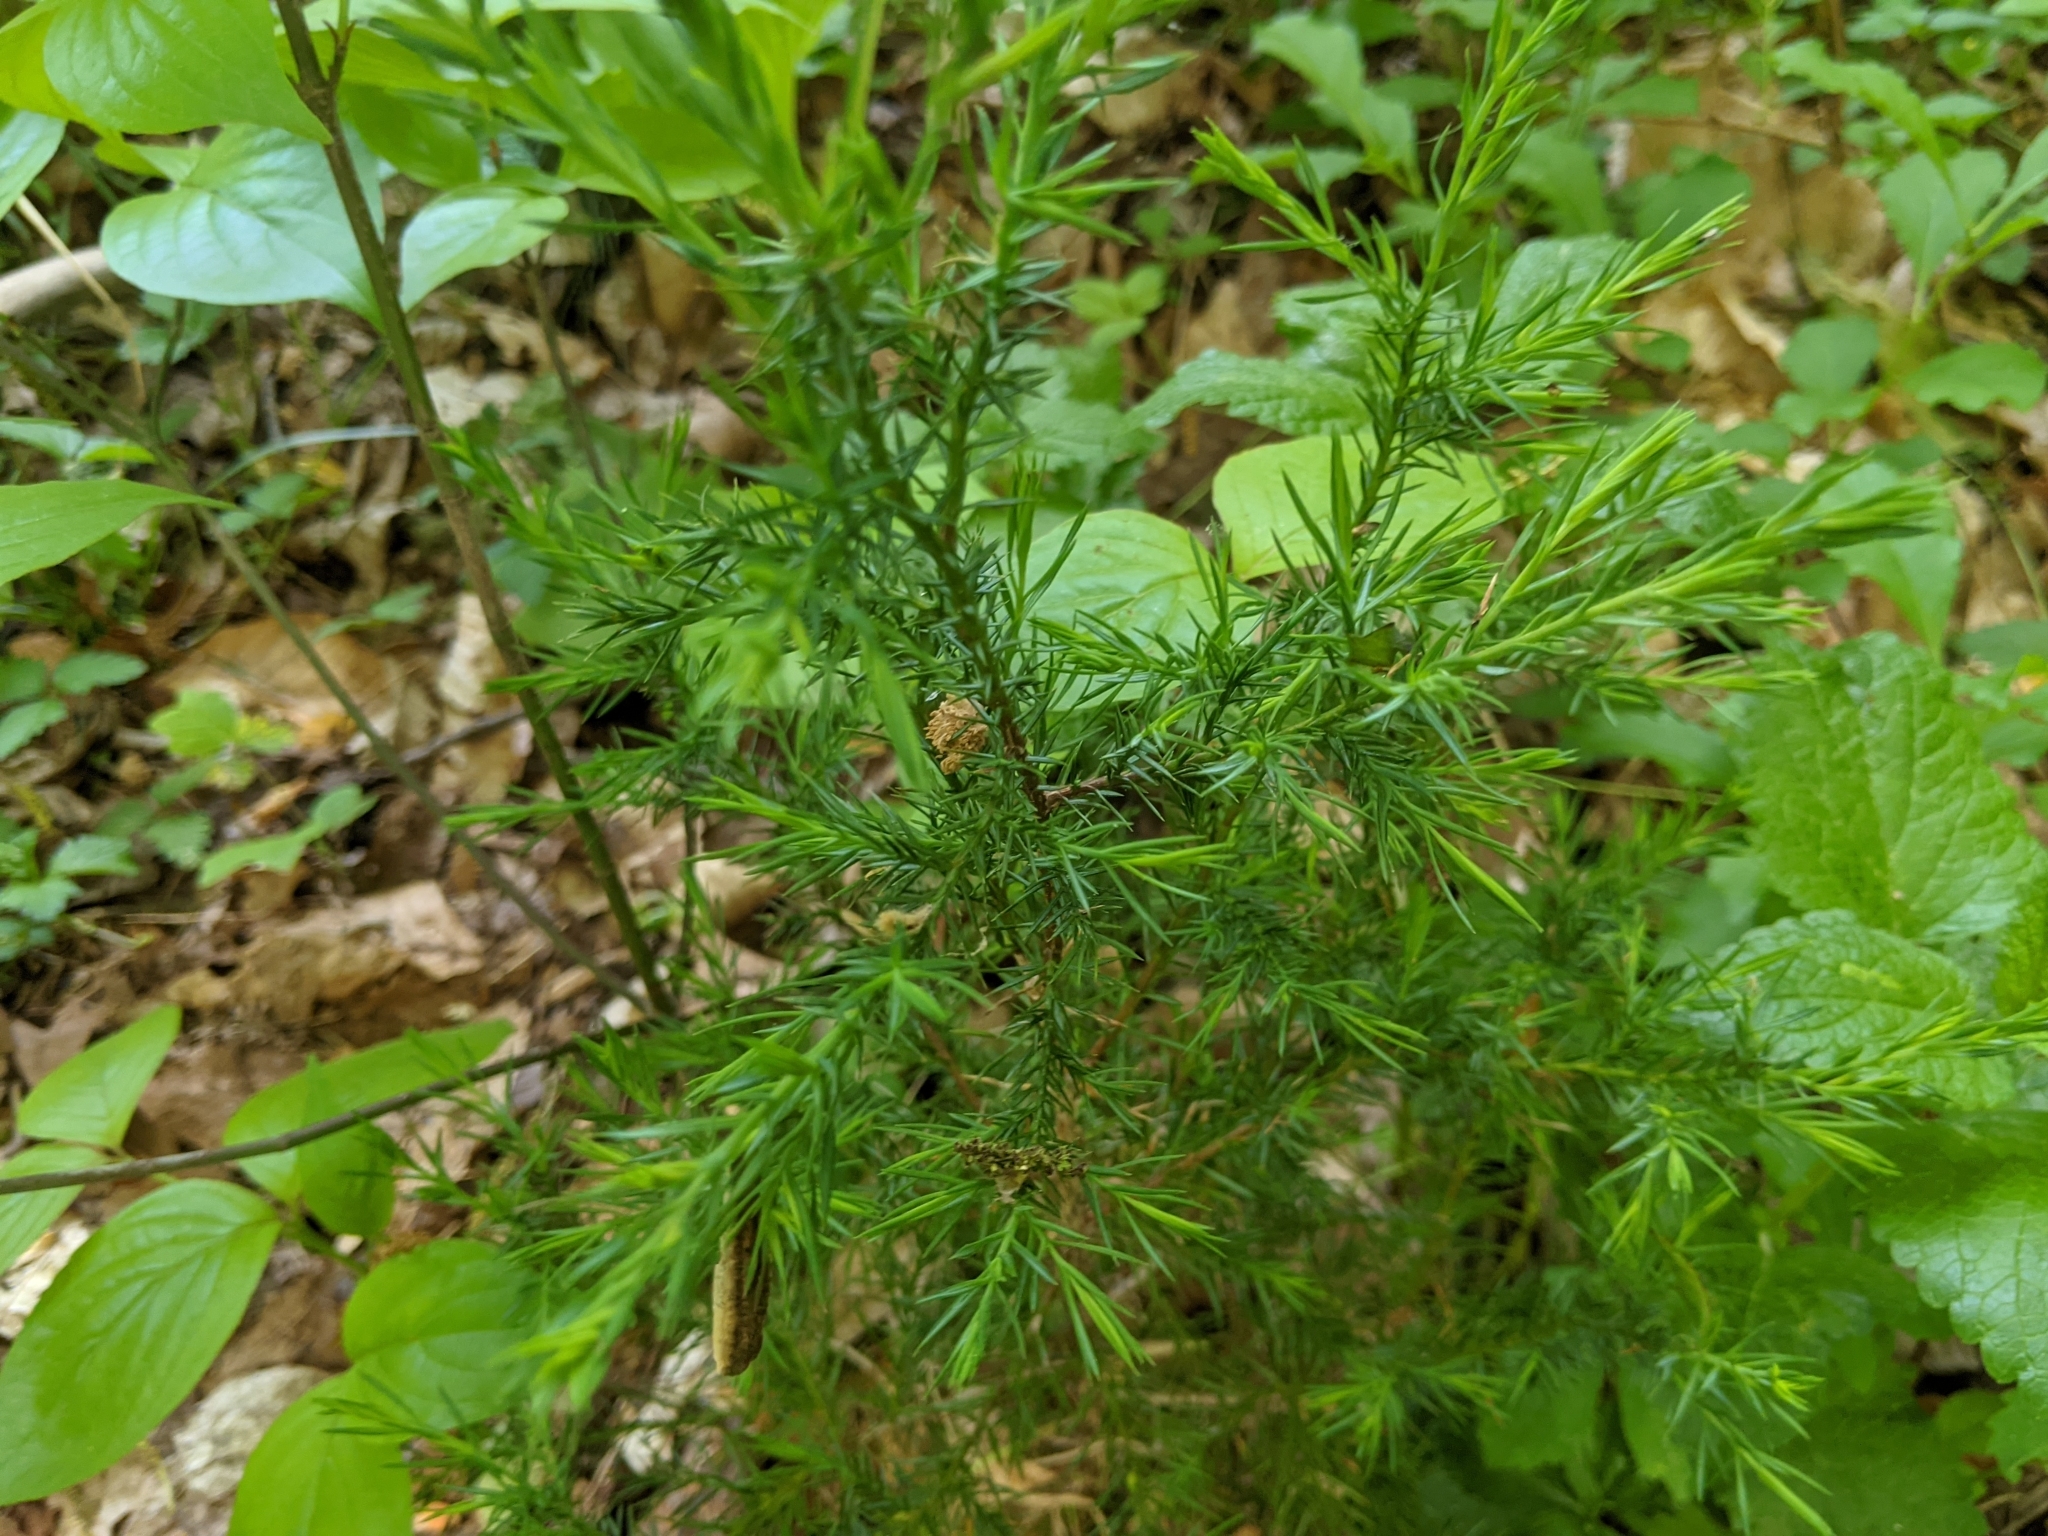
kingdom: Plantae
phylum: Tracheophyta
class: Pinopsida
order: Pinales
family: Cupressaceae
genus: Juniperus
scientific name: Juniperus virginiana
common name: Red juniper
